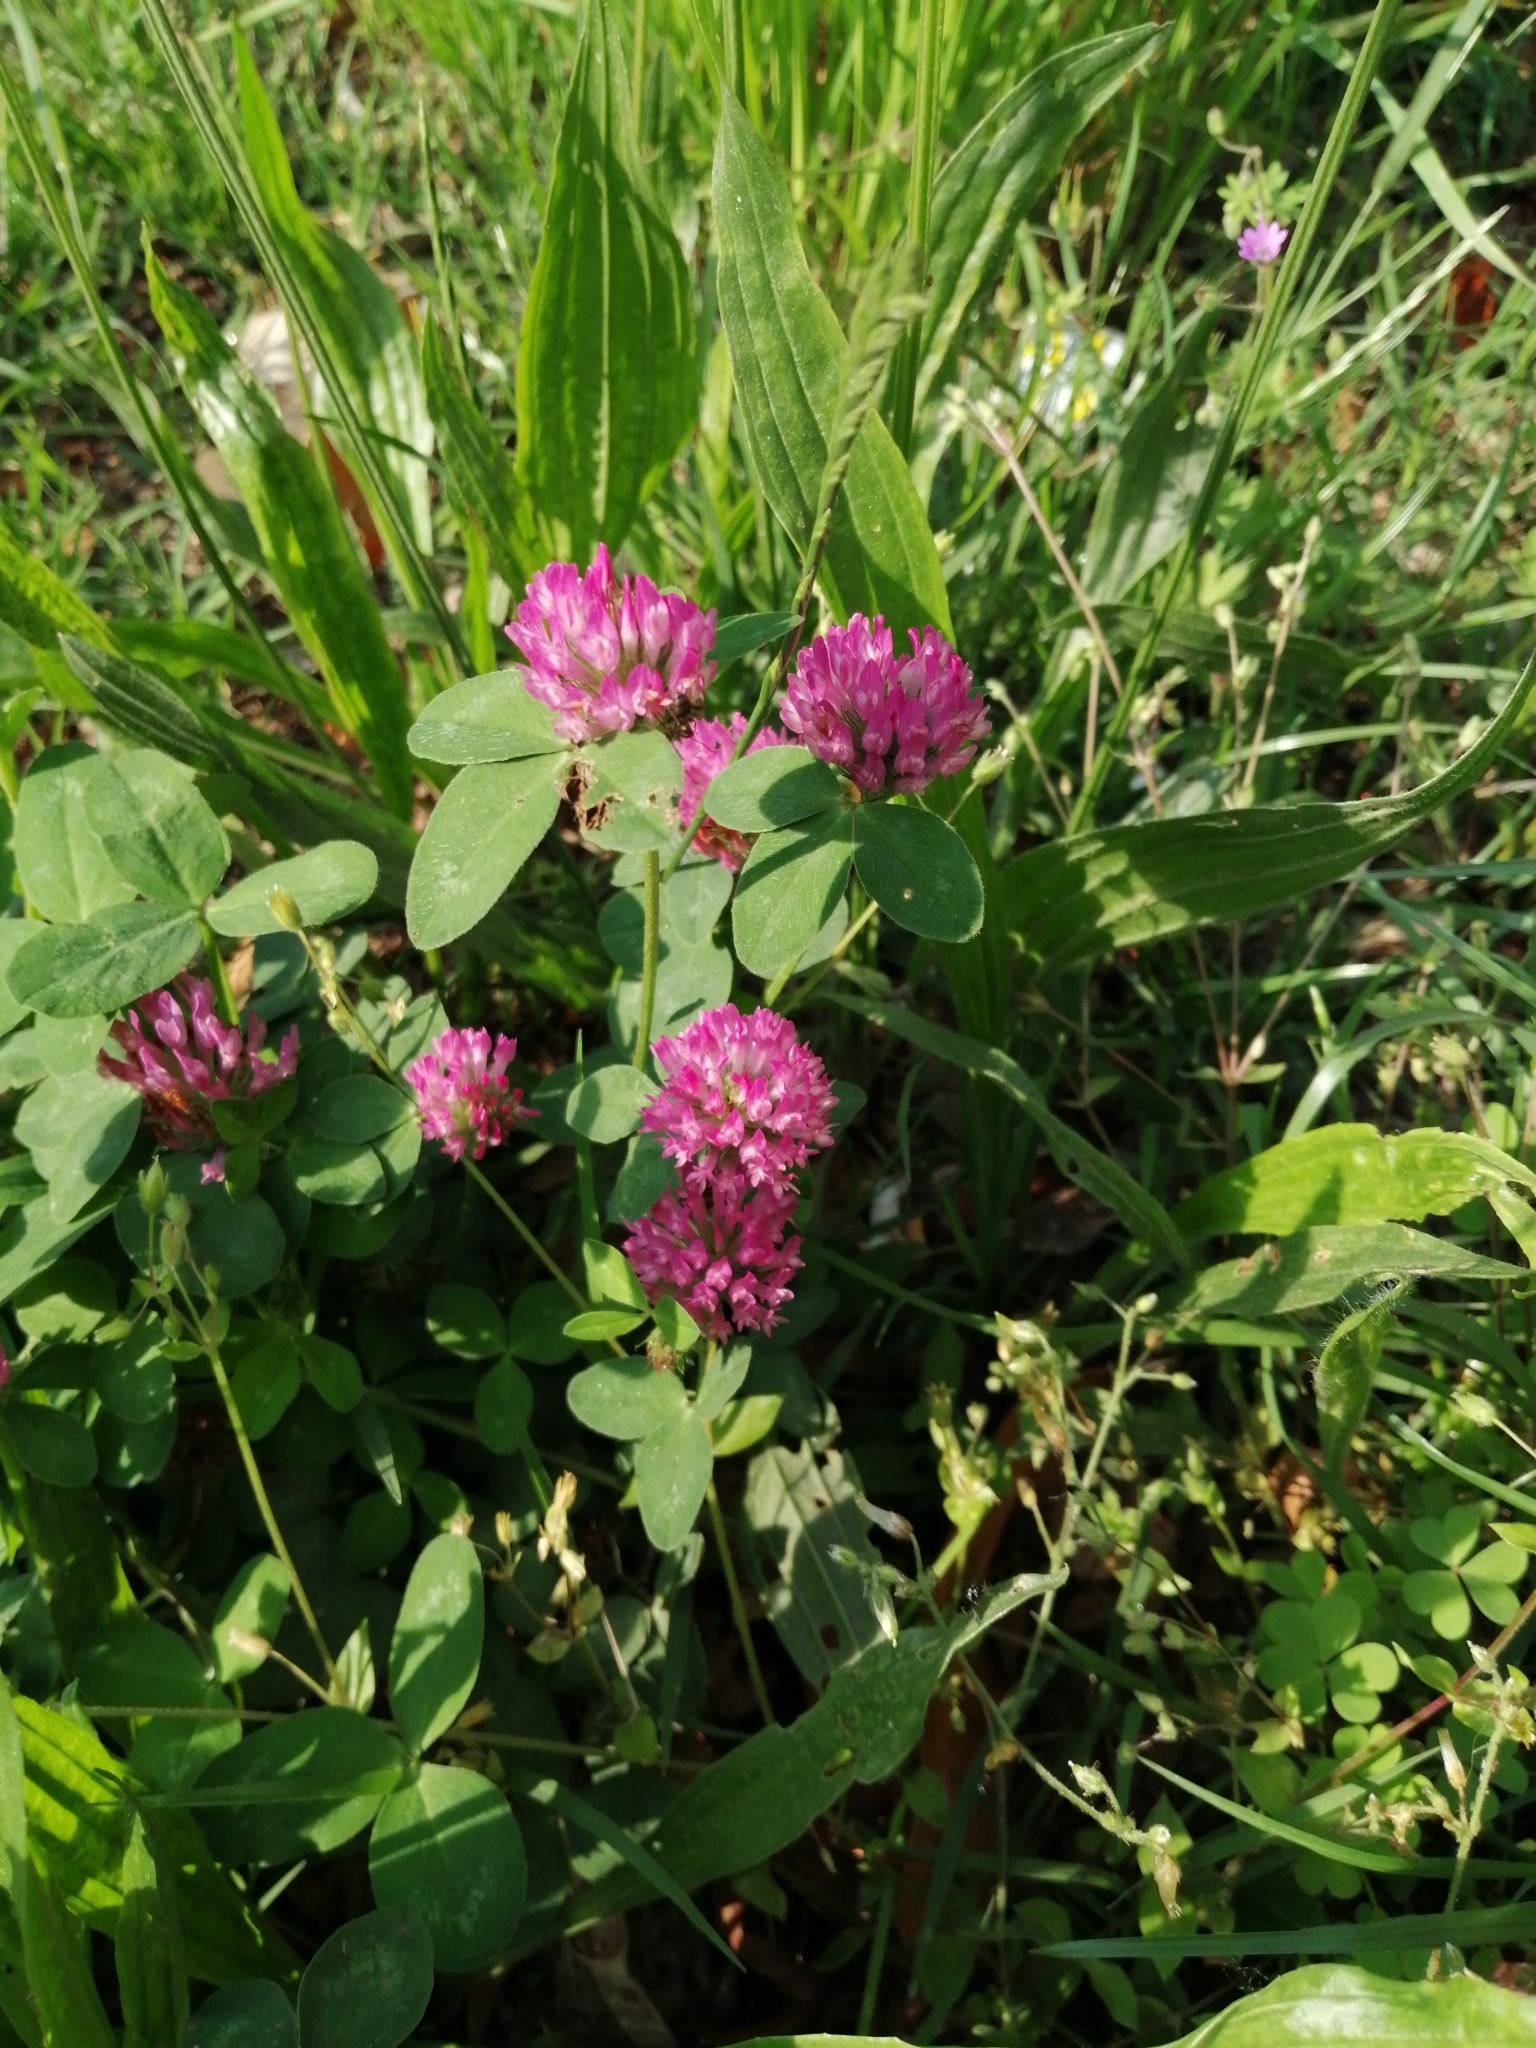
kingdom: Plantae
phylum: Tracheophyta
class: Magnoliopsida
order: Fabales
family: Fabaceae
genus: Trifolium
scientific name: Trifolium pratense
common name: Red clover
